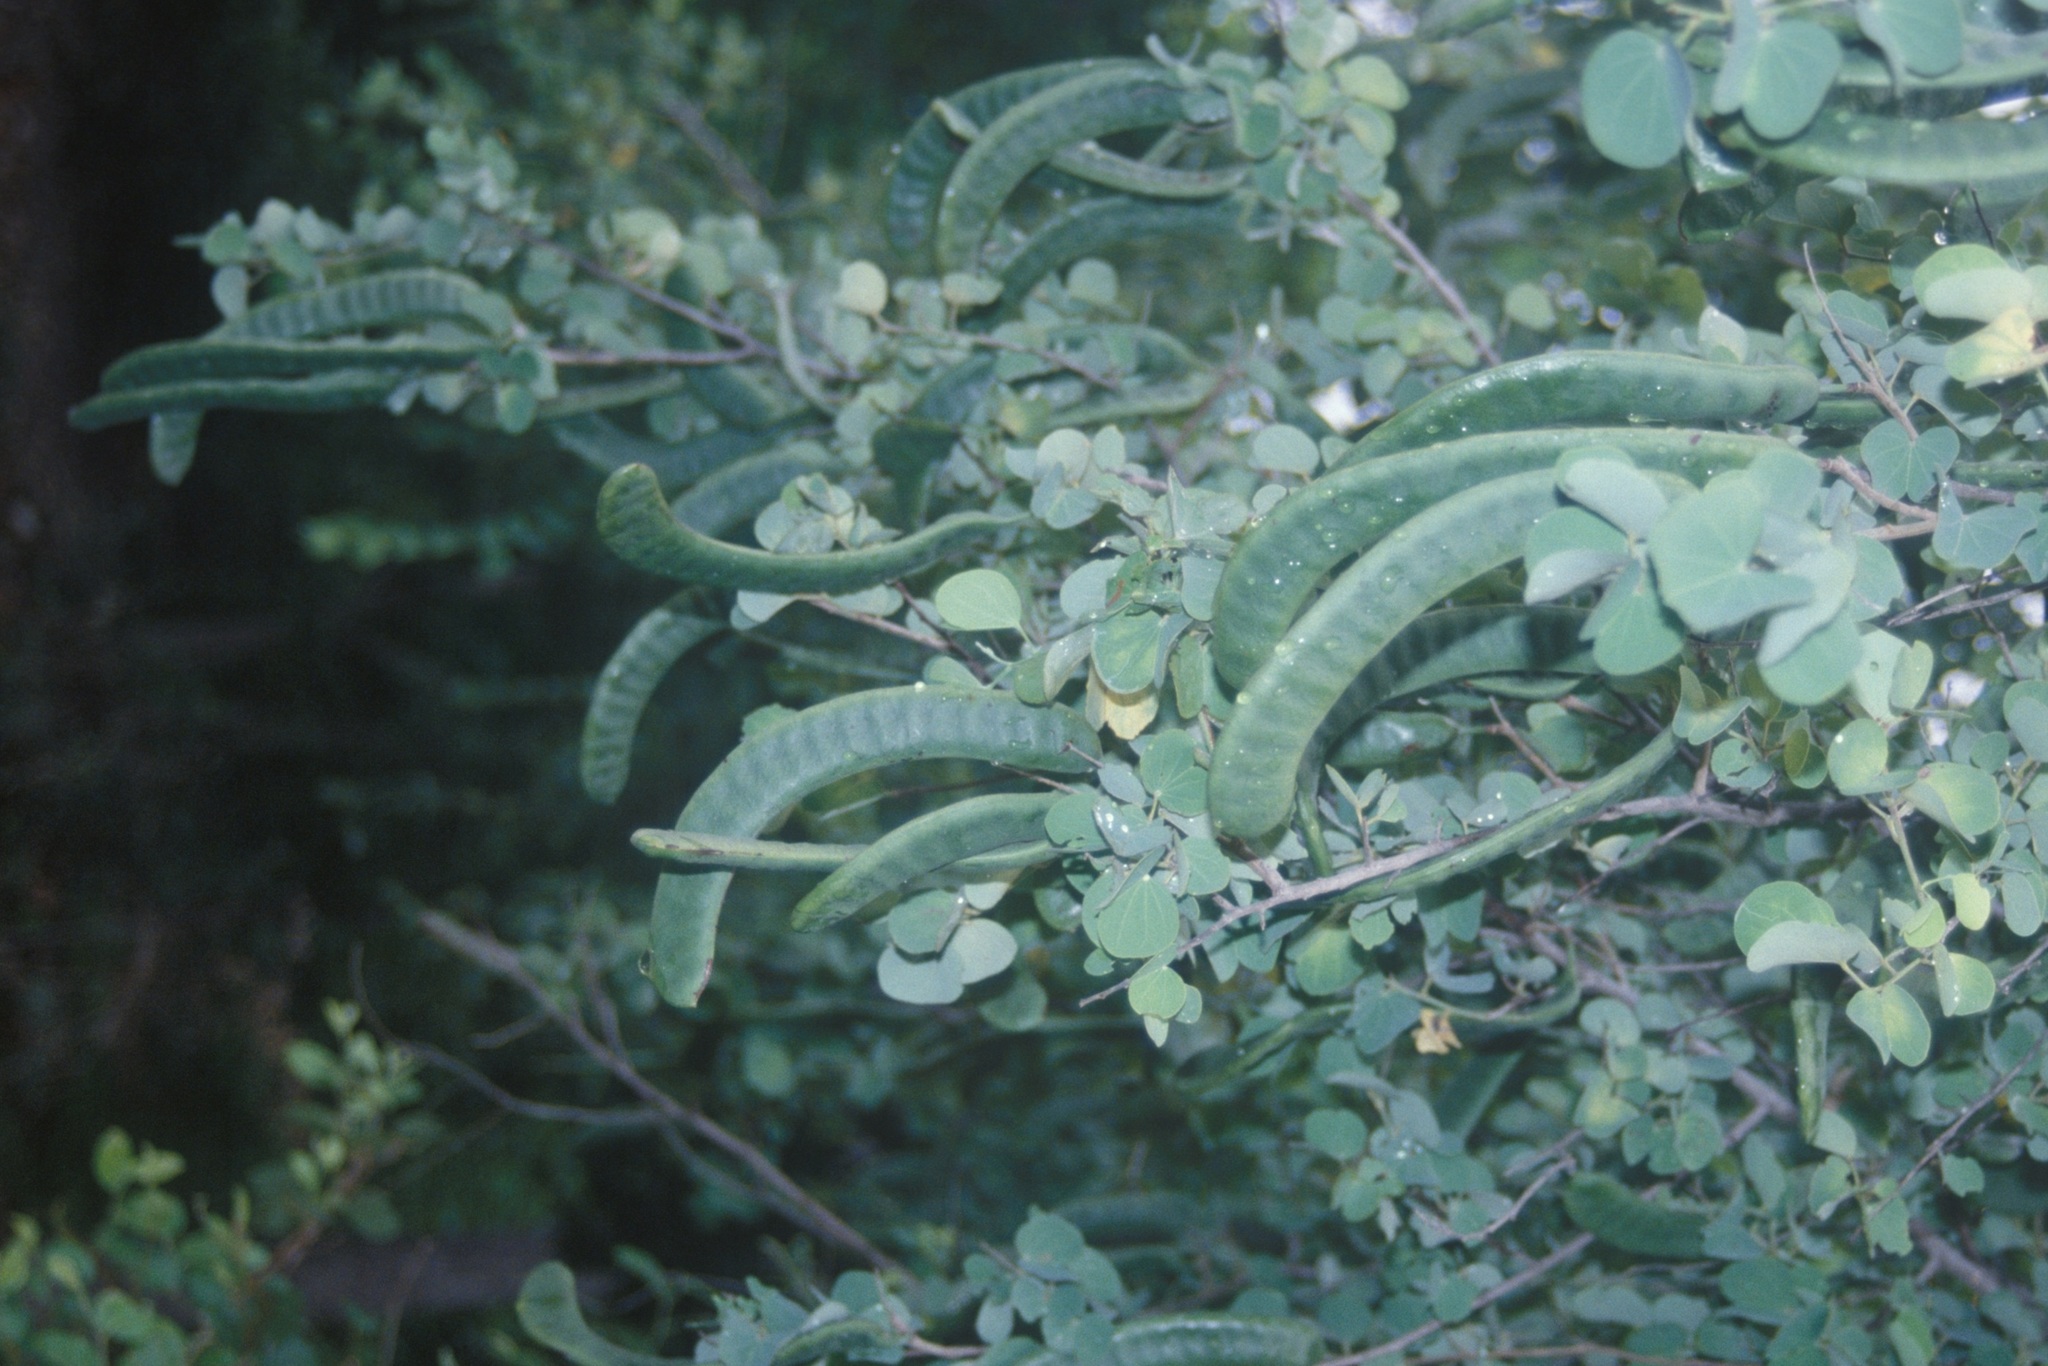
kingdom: Plantae
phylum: Tracheophyta
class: Magnoliopsida
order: Fabales
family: Fabaceae
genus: Bauhinia
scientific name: Bauhinia racemosa
